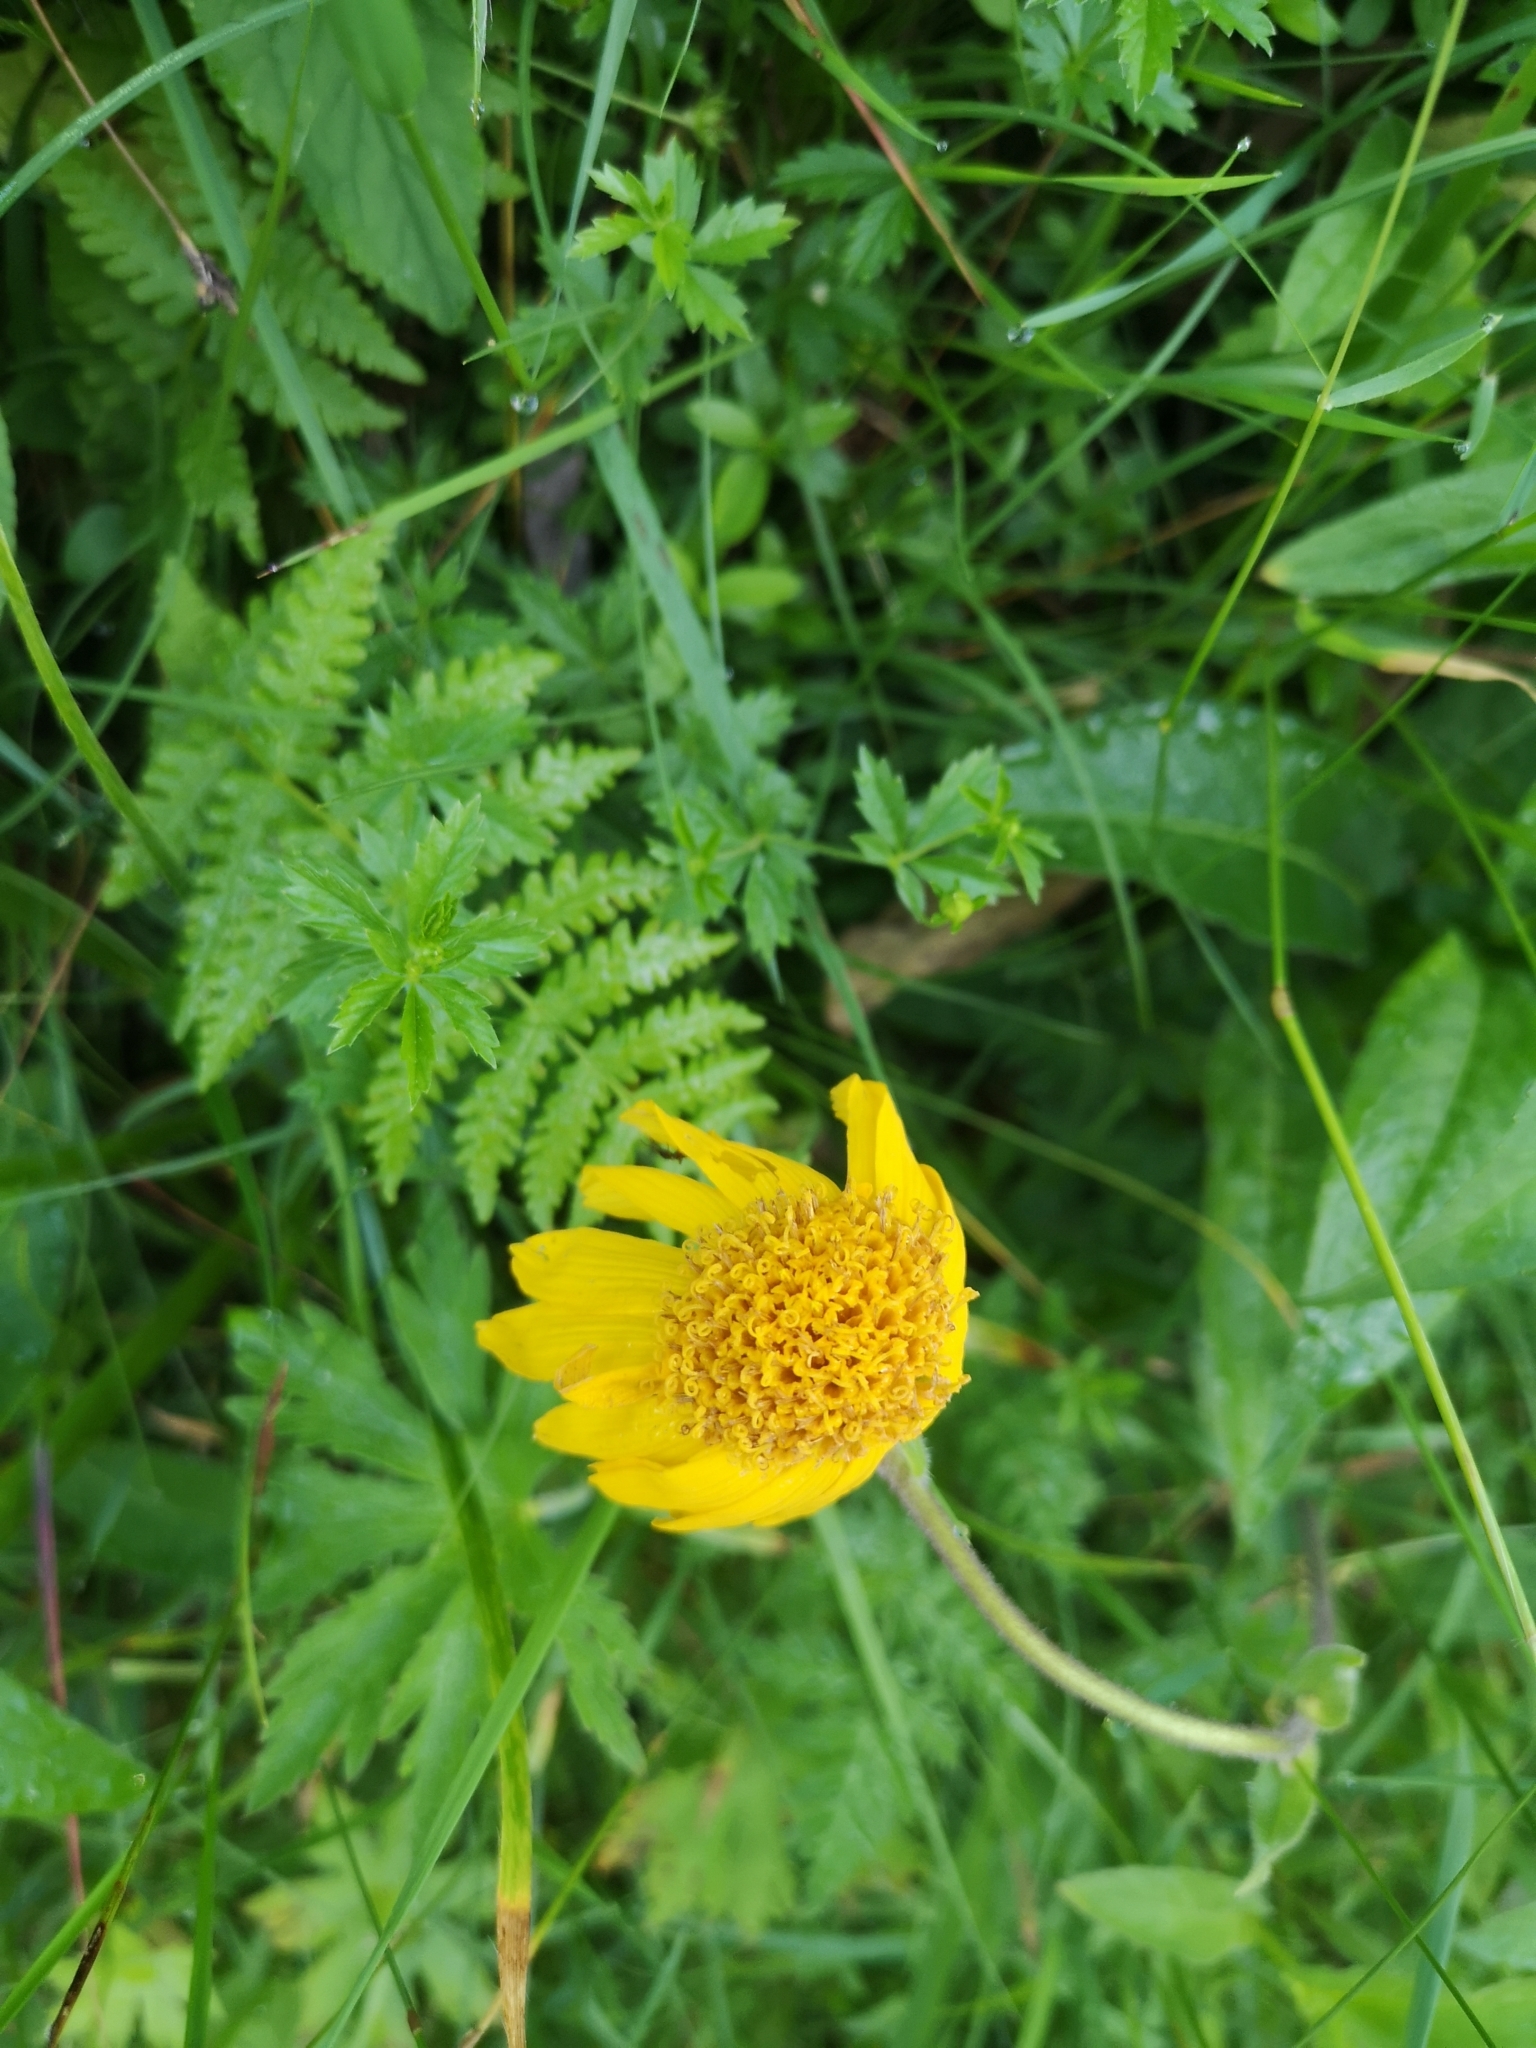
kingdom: Plantae
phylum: Tracheophyta
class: Magnoliopsida
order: Asterales
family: Asteraceae
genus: Arnica
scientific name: Arnica montana
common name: Leopard's bane
